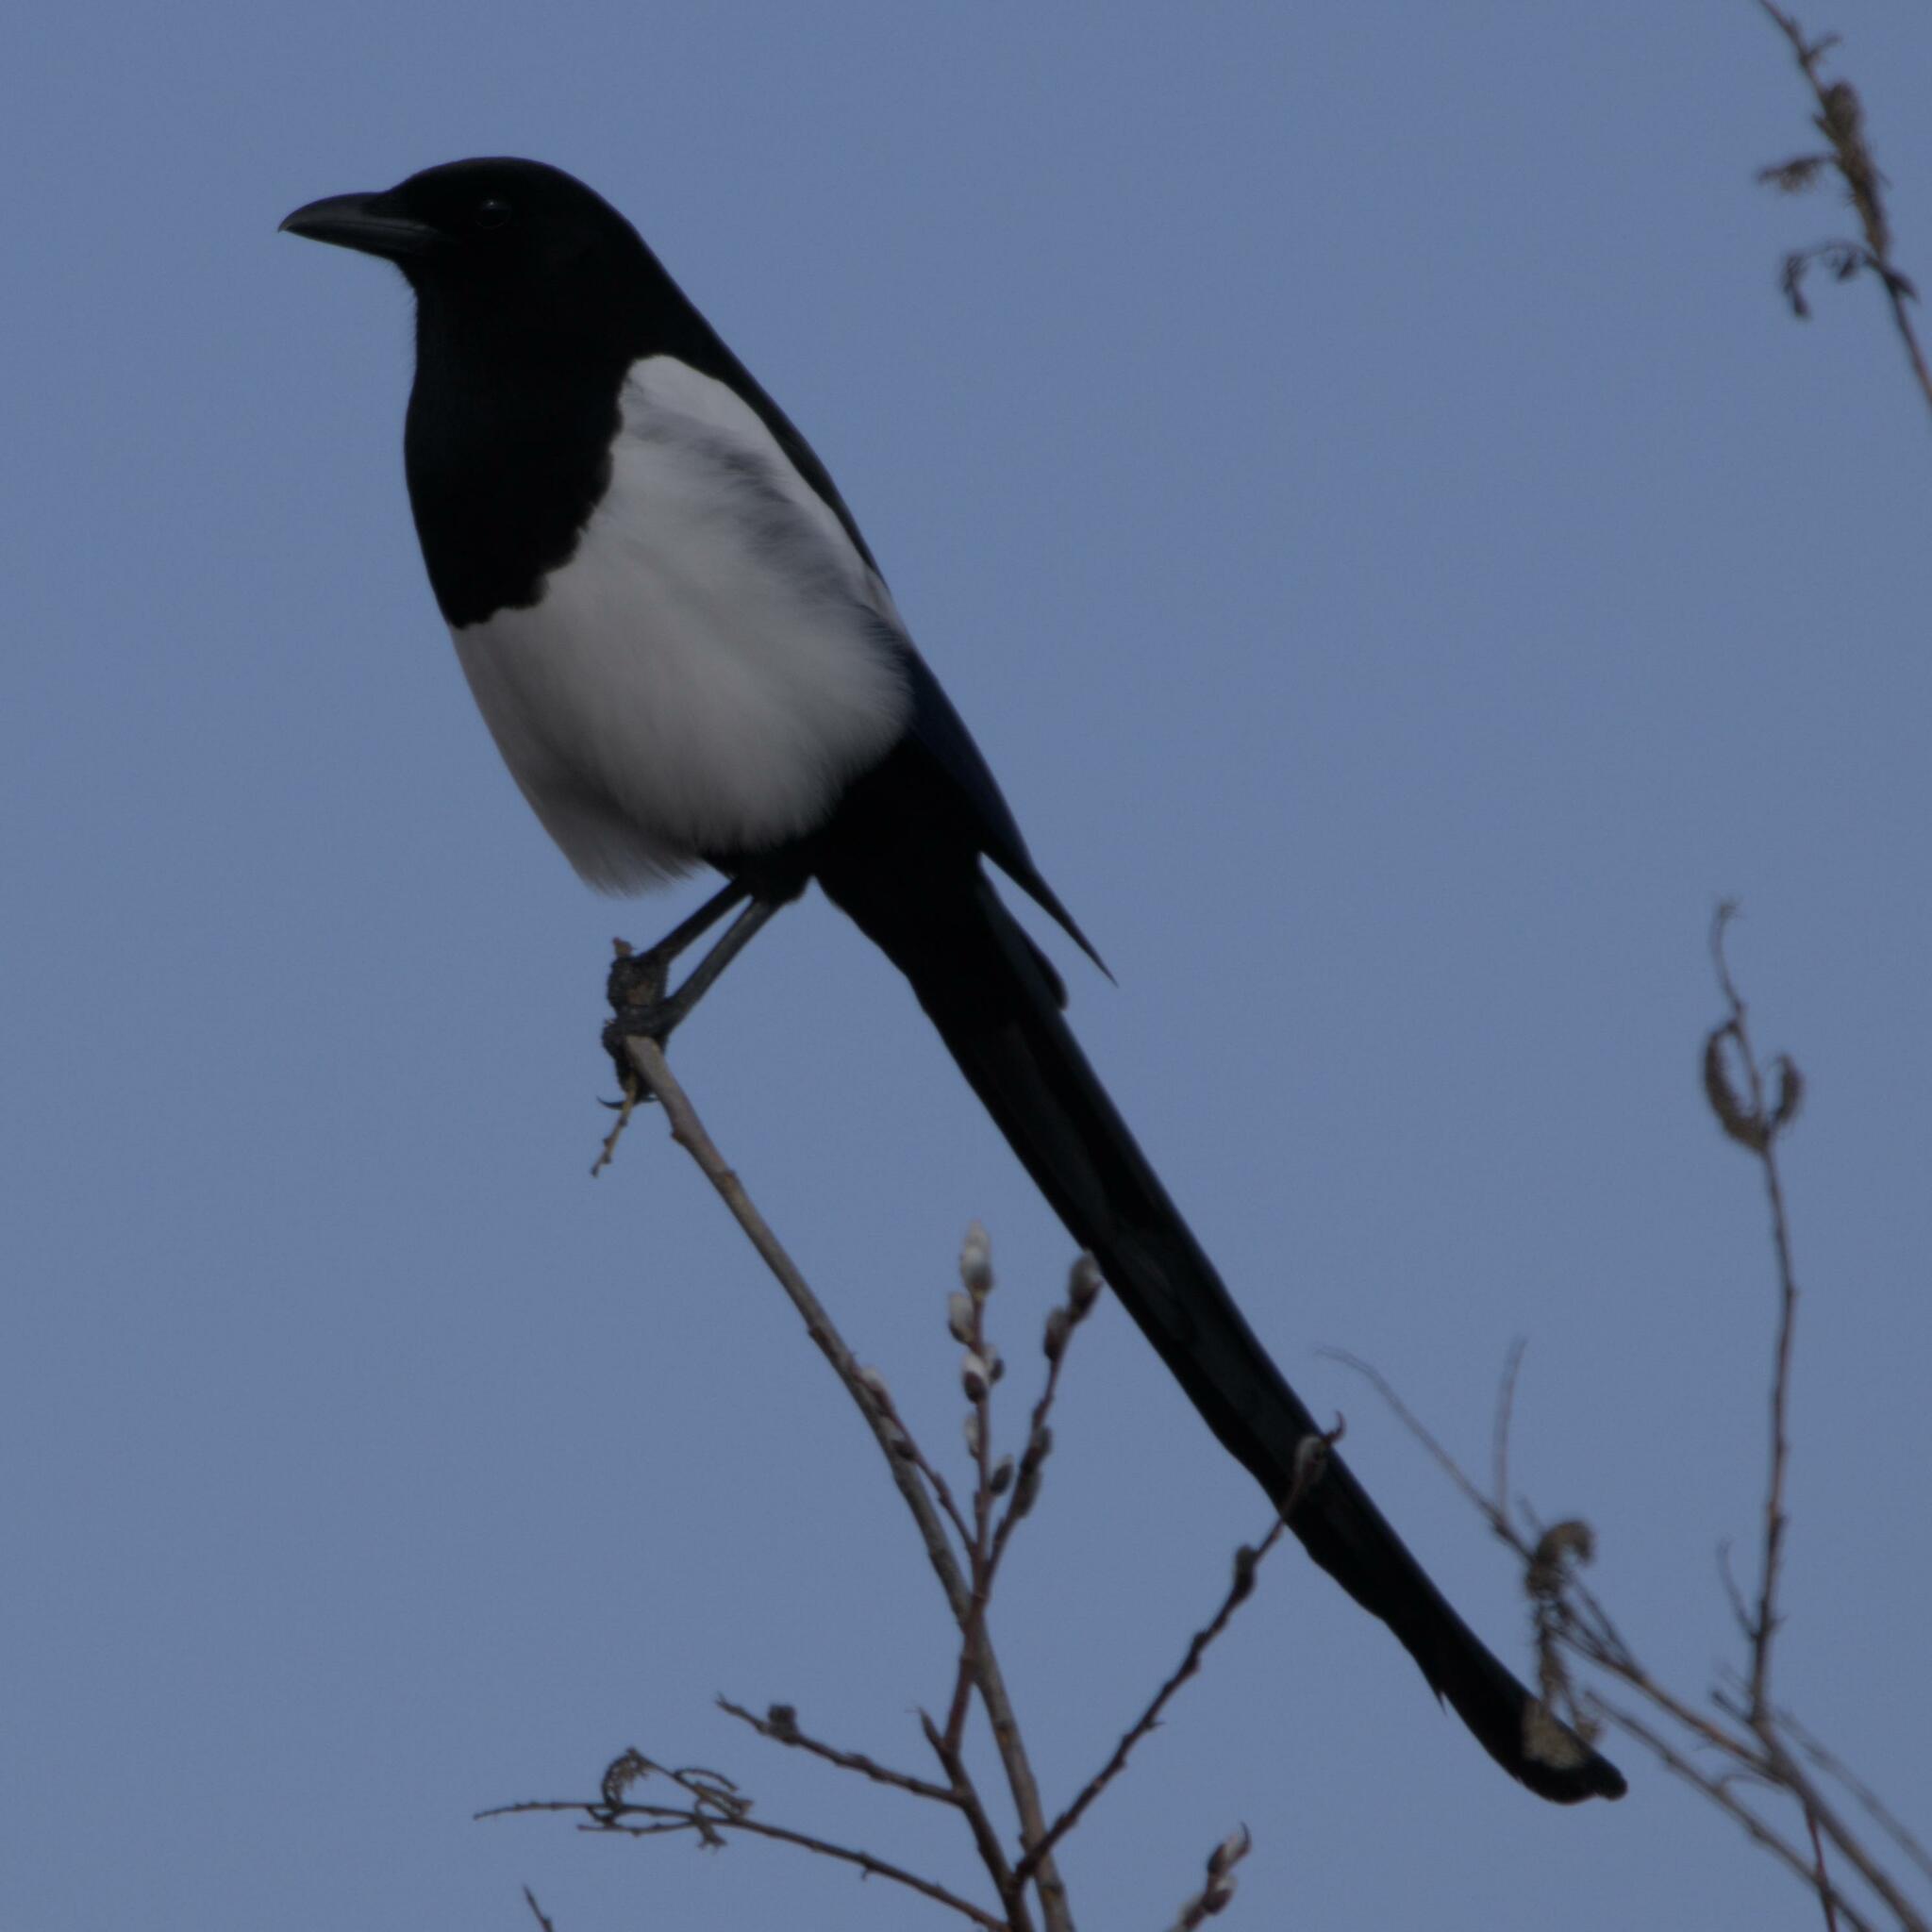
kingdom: Animalia
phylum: Chordata
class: Aves
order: Passeriformes
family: Corvidae
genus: Pica
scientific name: Pica hudsonia
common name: Black-billed magpie
